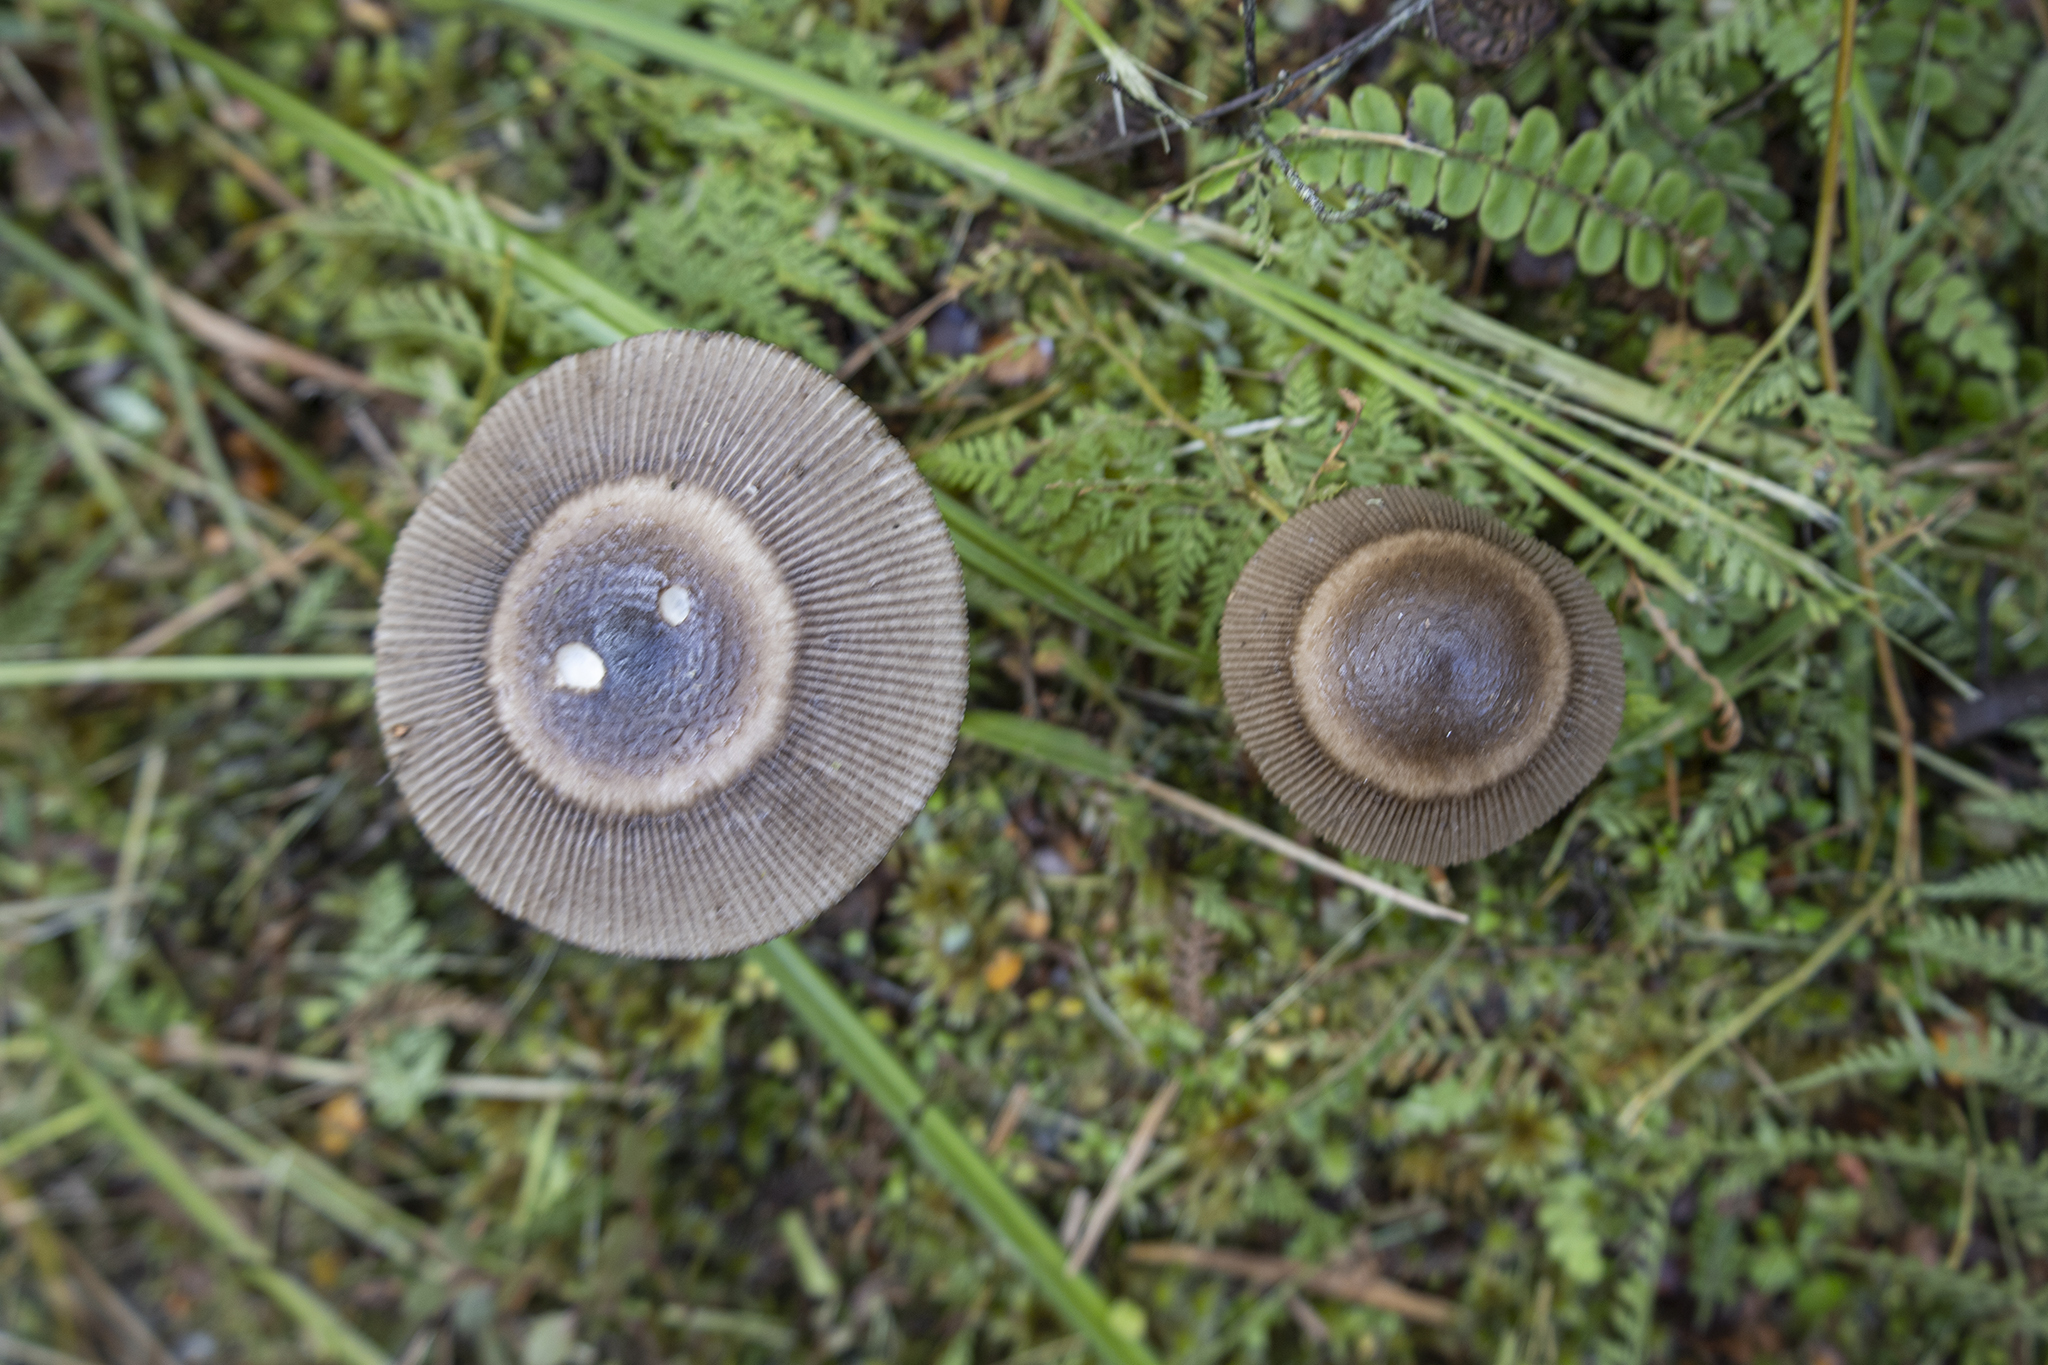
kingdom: Fungi
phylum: Basidiomycota
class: Agaricomycetes
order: Agaricales
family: Amanitaceae
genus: Amanita
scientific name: Amanita pekeoides
